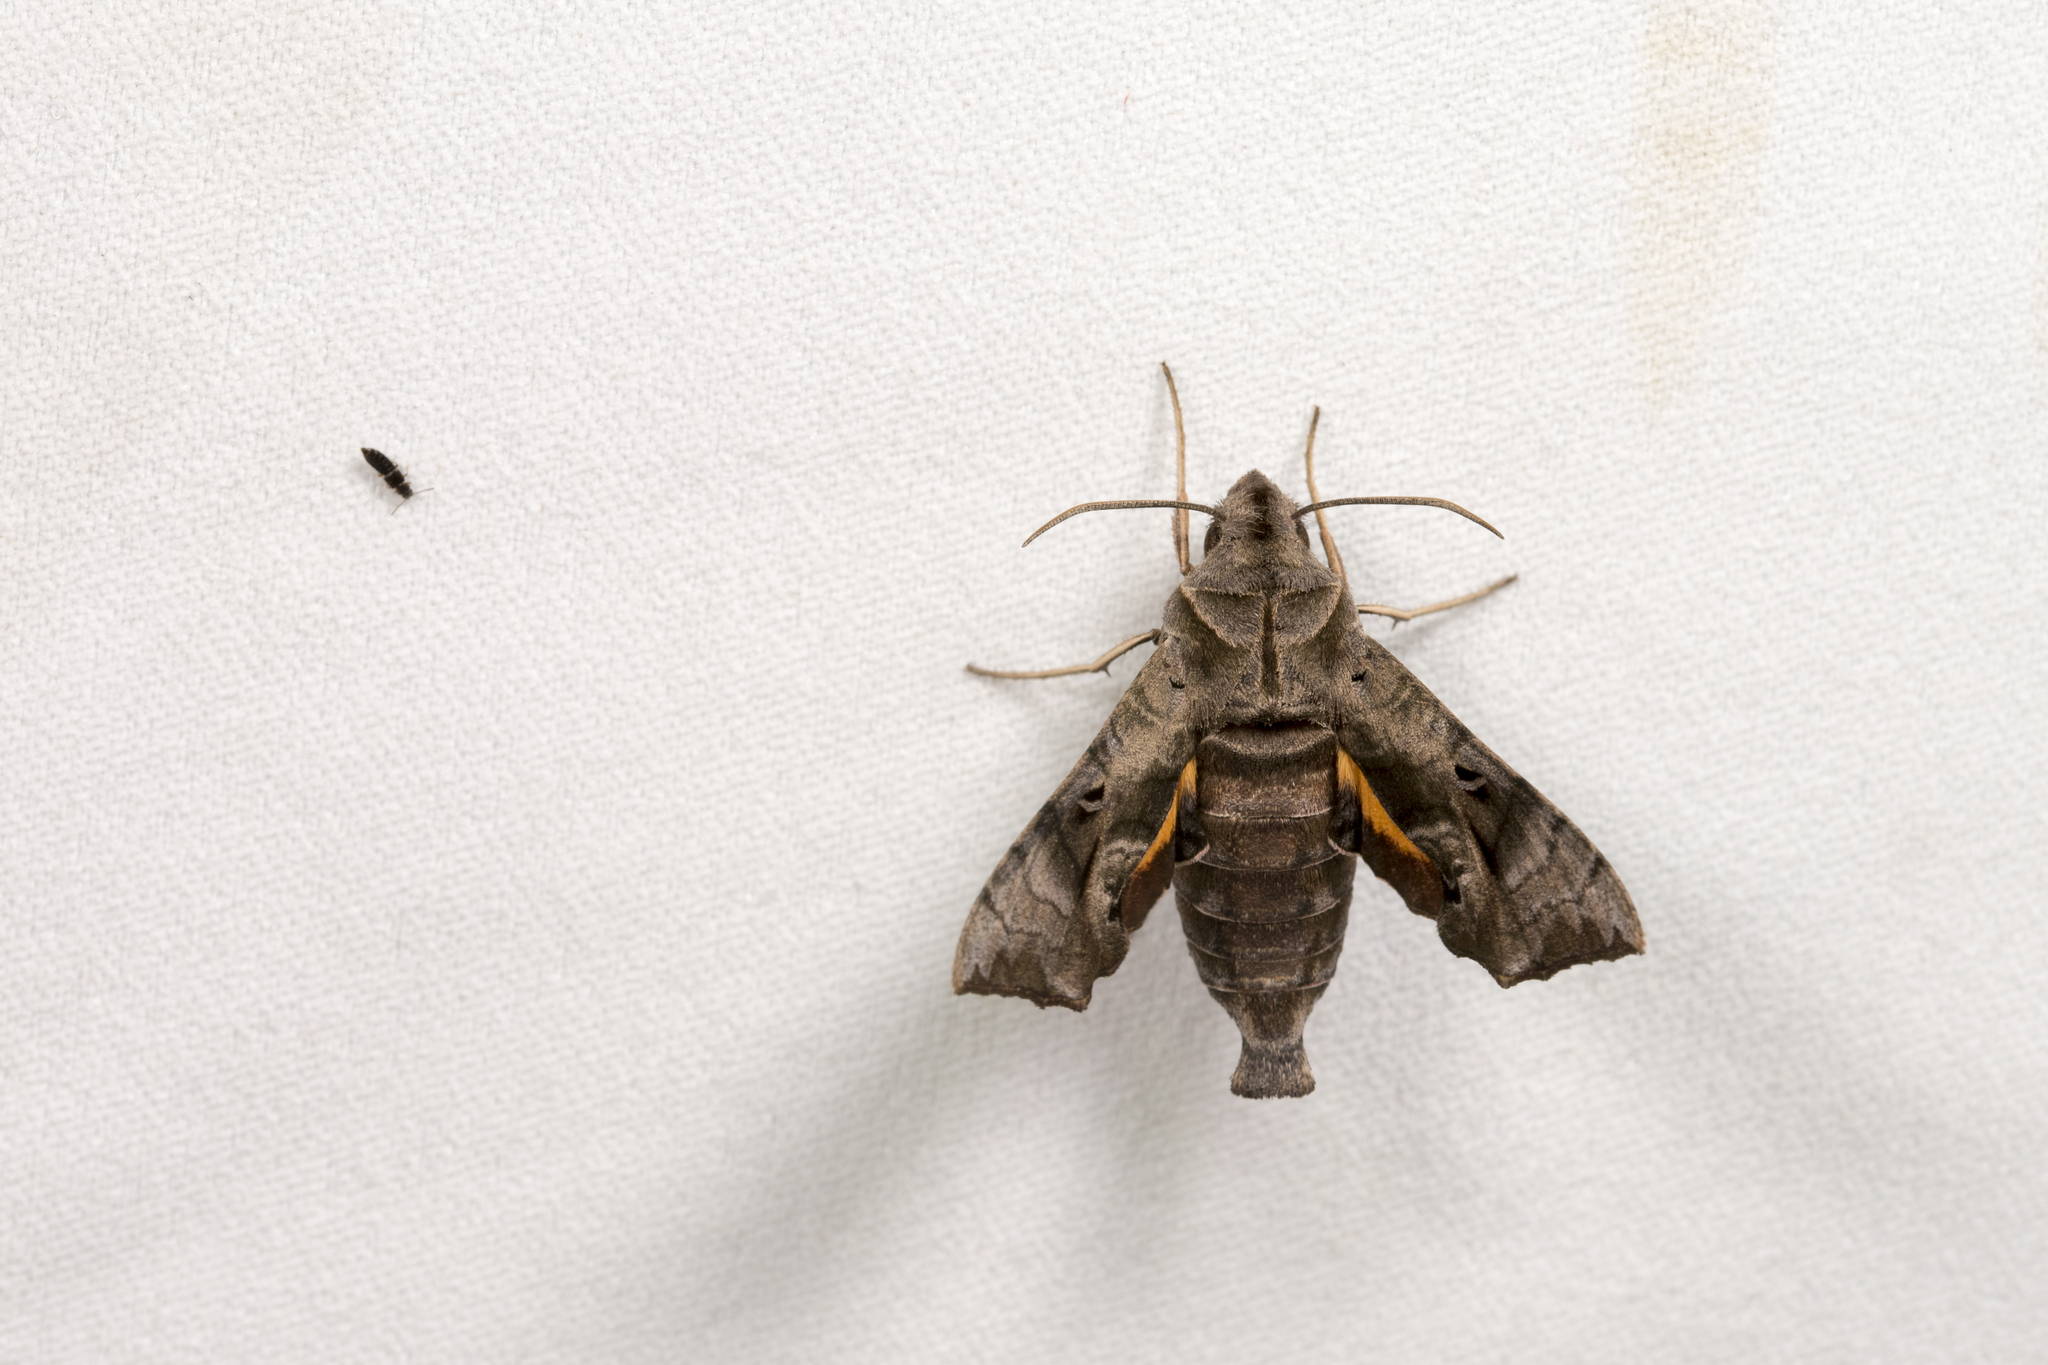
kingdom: Animalia
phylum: Arthropoda
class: Insecta
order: Lepidoptera
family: Sphingidae
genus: Neogurelca
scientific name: Neogurelca hyas
